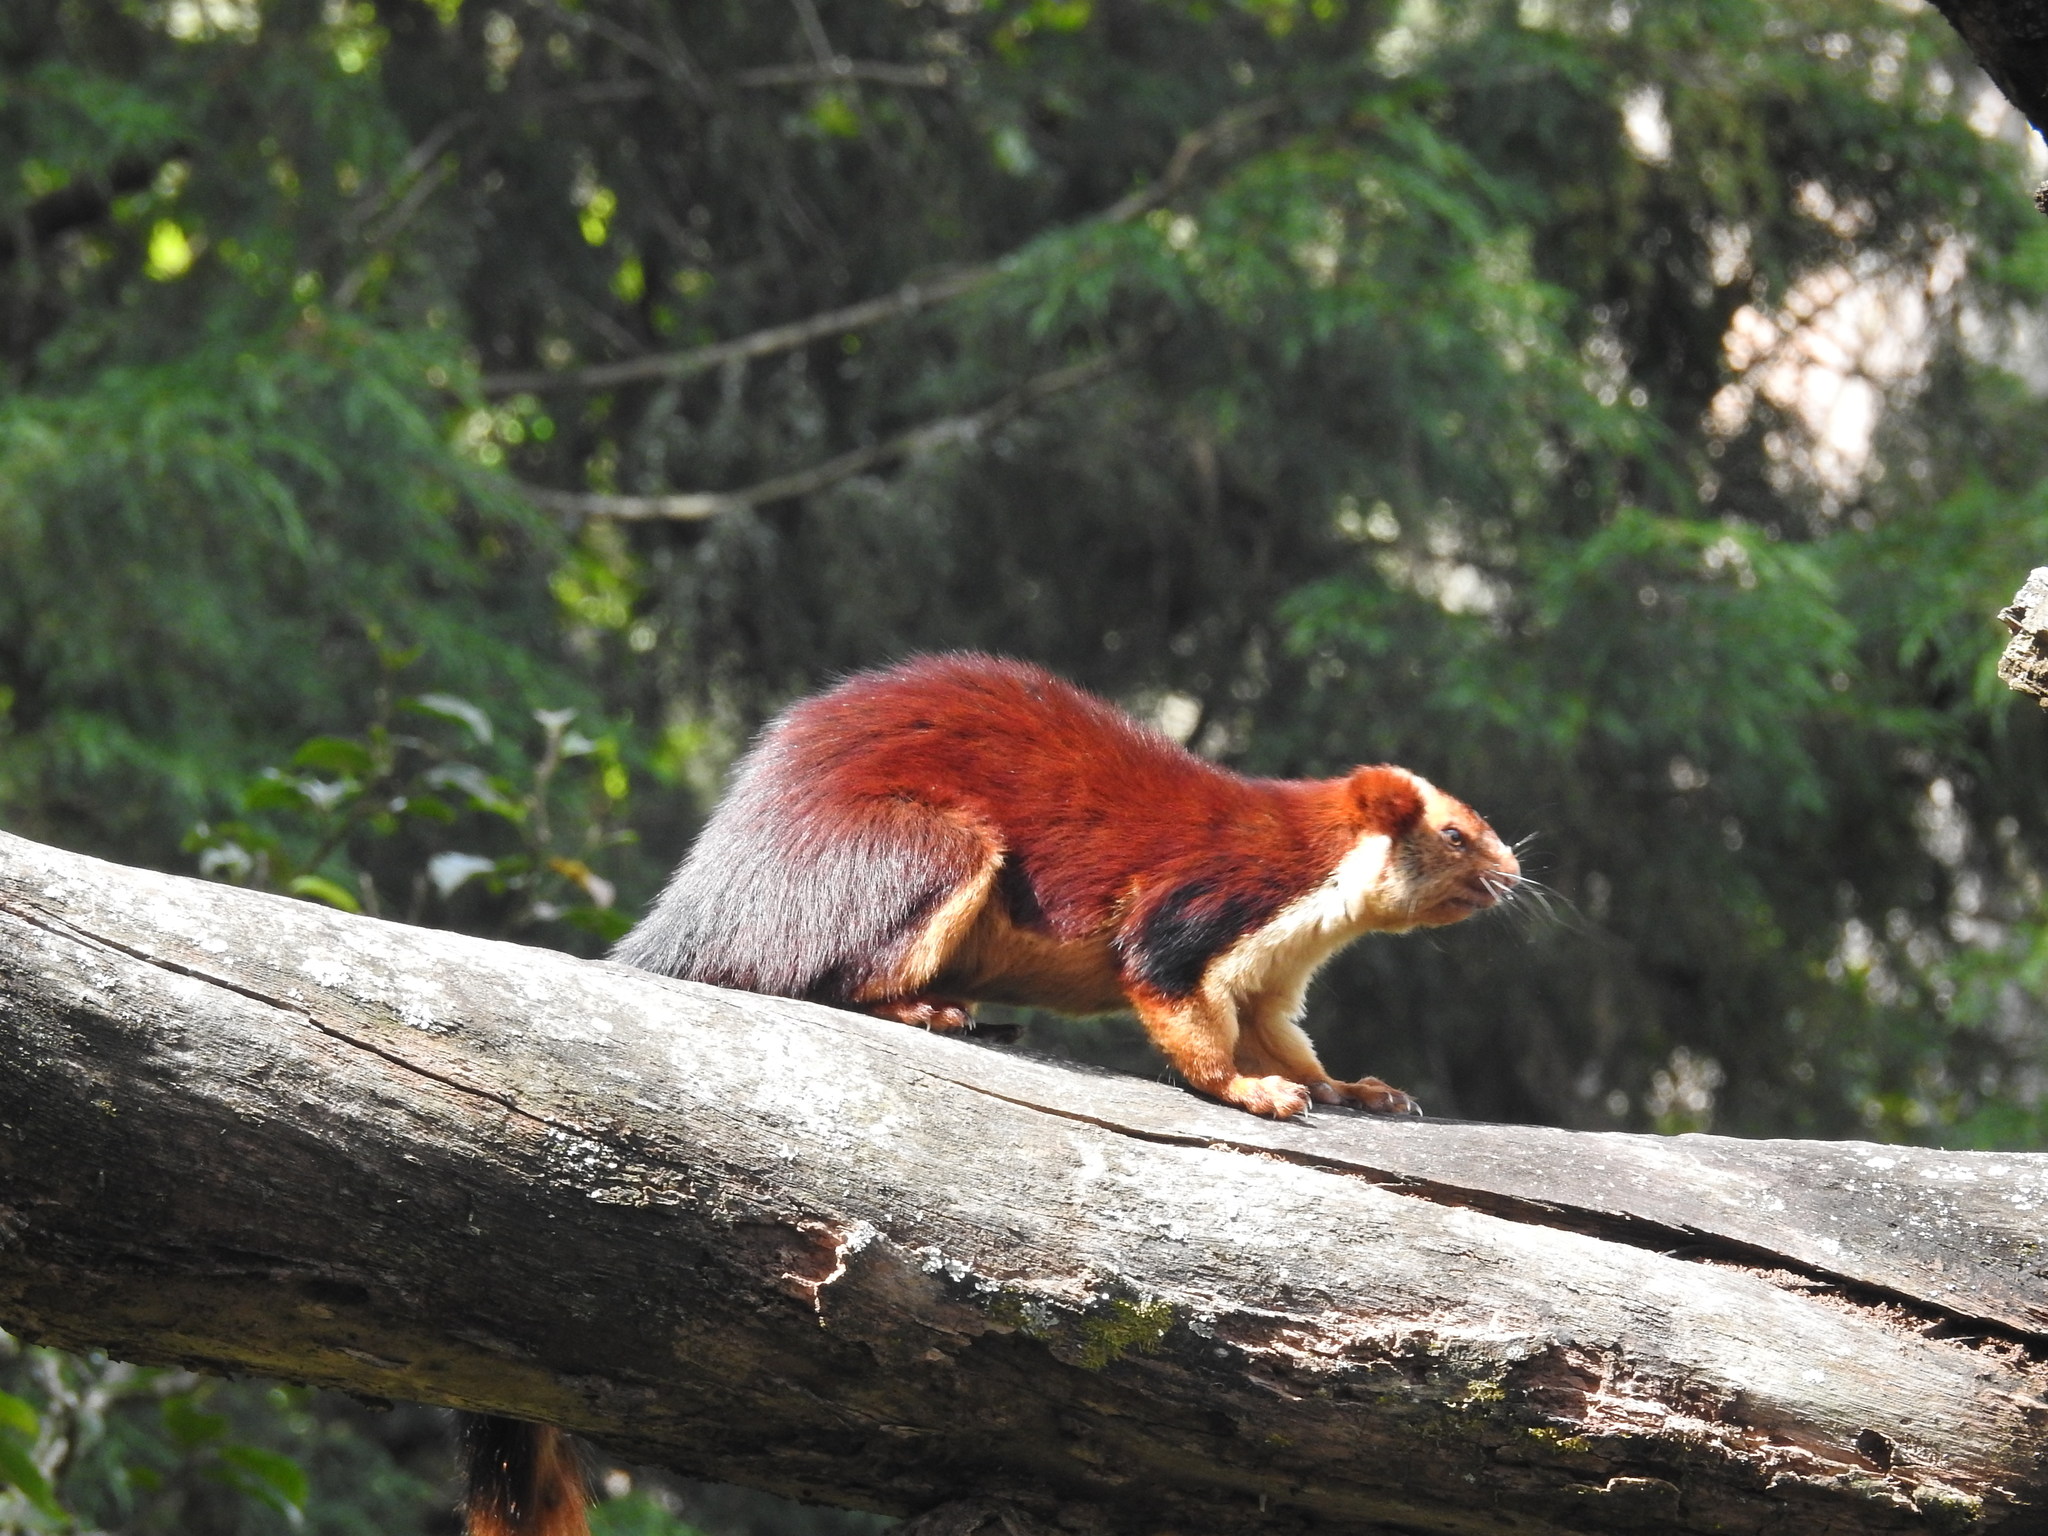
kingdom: Animalia
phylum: Chordata
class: Mammalia
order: Rodentia
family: Sciuridae
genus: Ratufa
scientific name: Ratufa indica
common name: Indian giant squirrel
